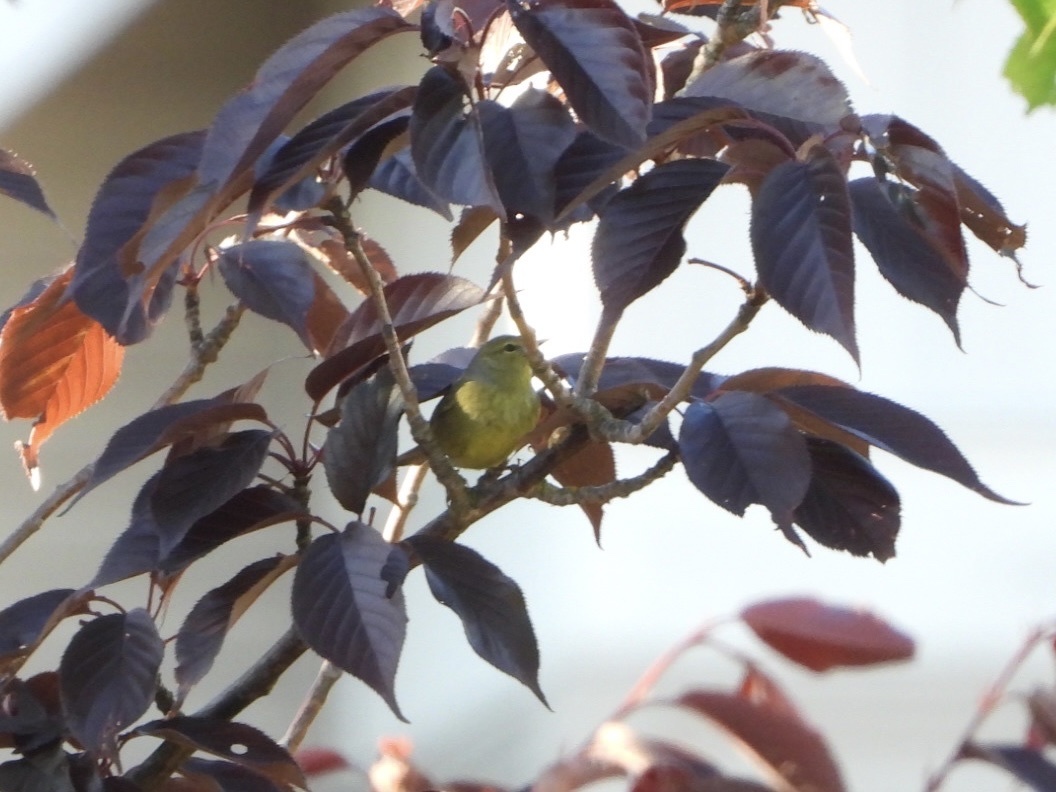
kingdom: Animalia
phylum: Chordata
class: Aves
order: Passeriformes
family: Parulidae
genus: Leiothlypis
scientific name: Leiothlypis celata
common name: Orange-crowned warbler
